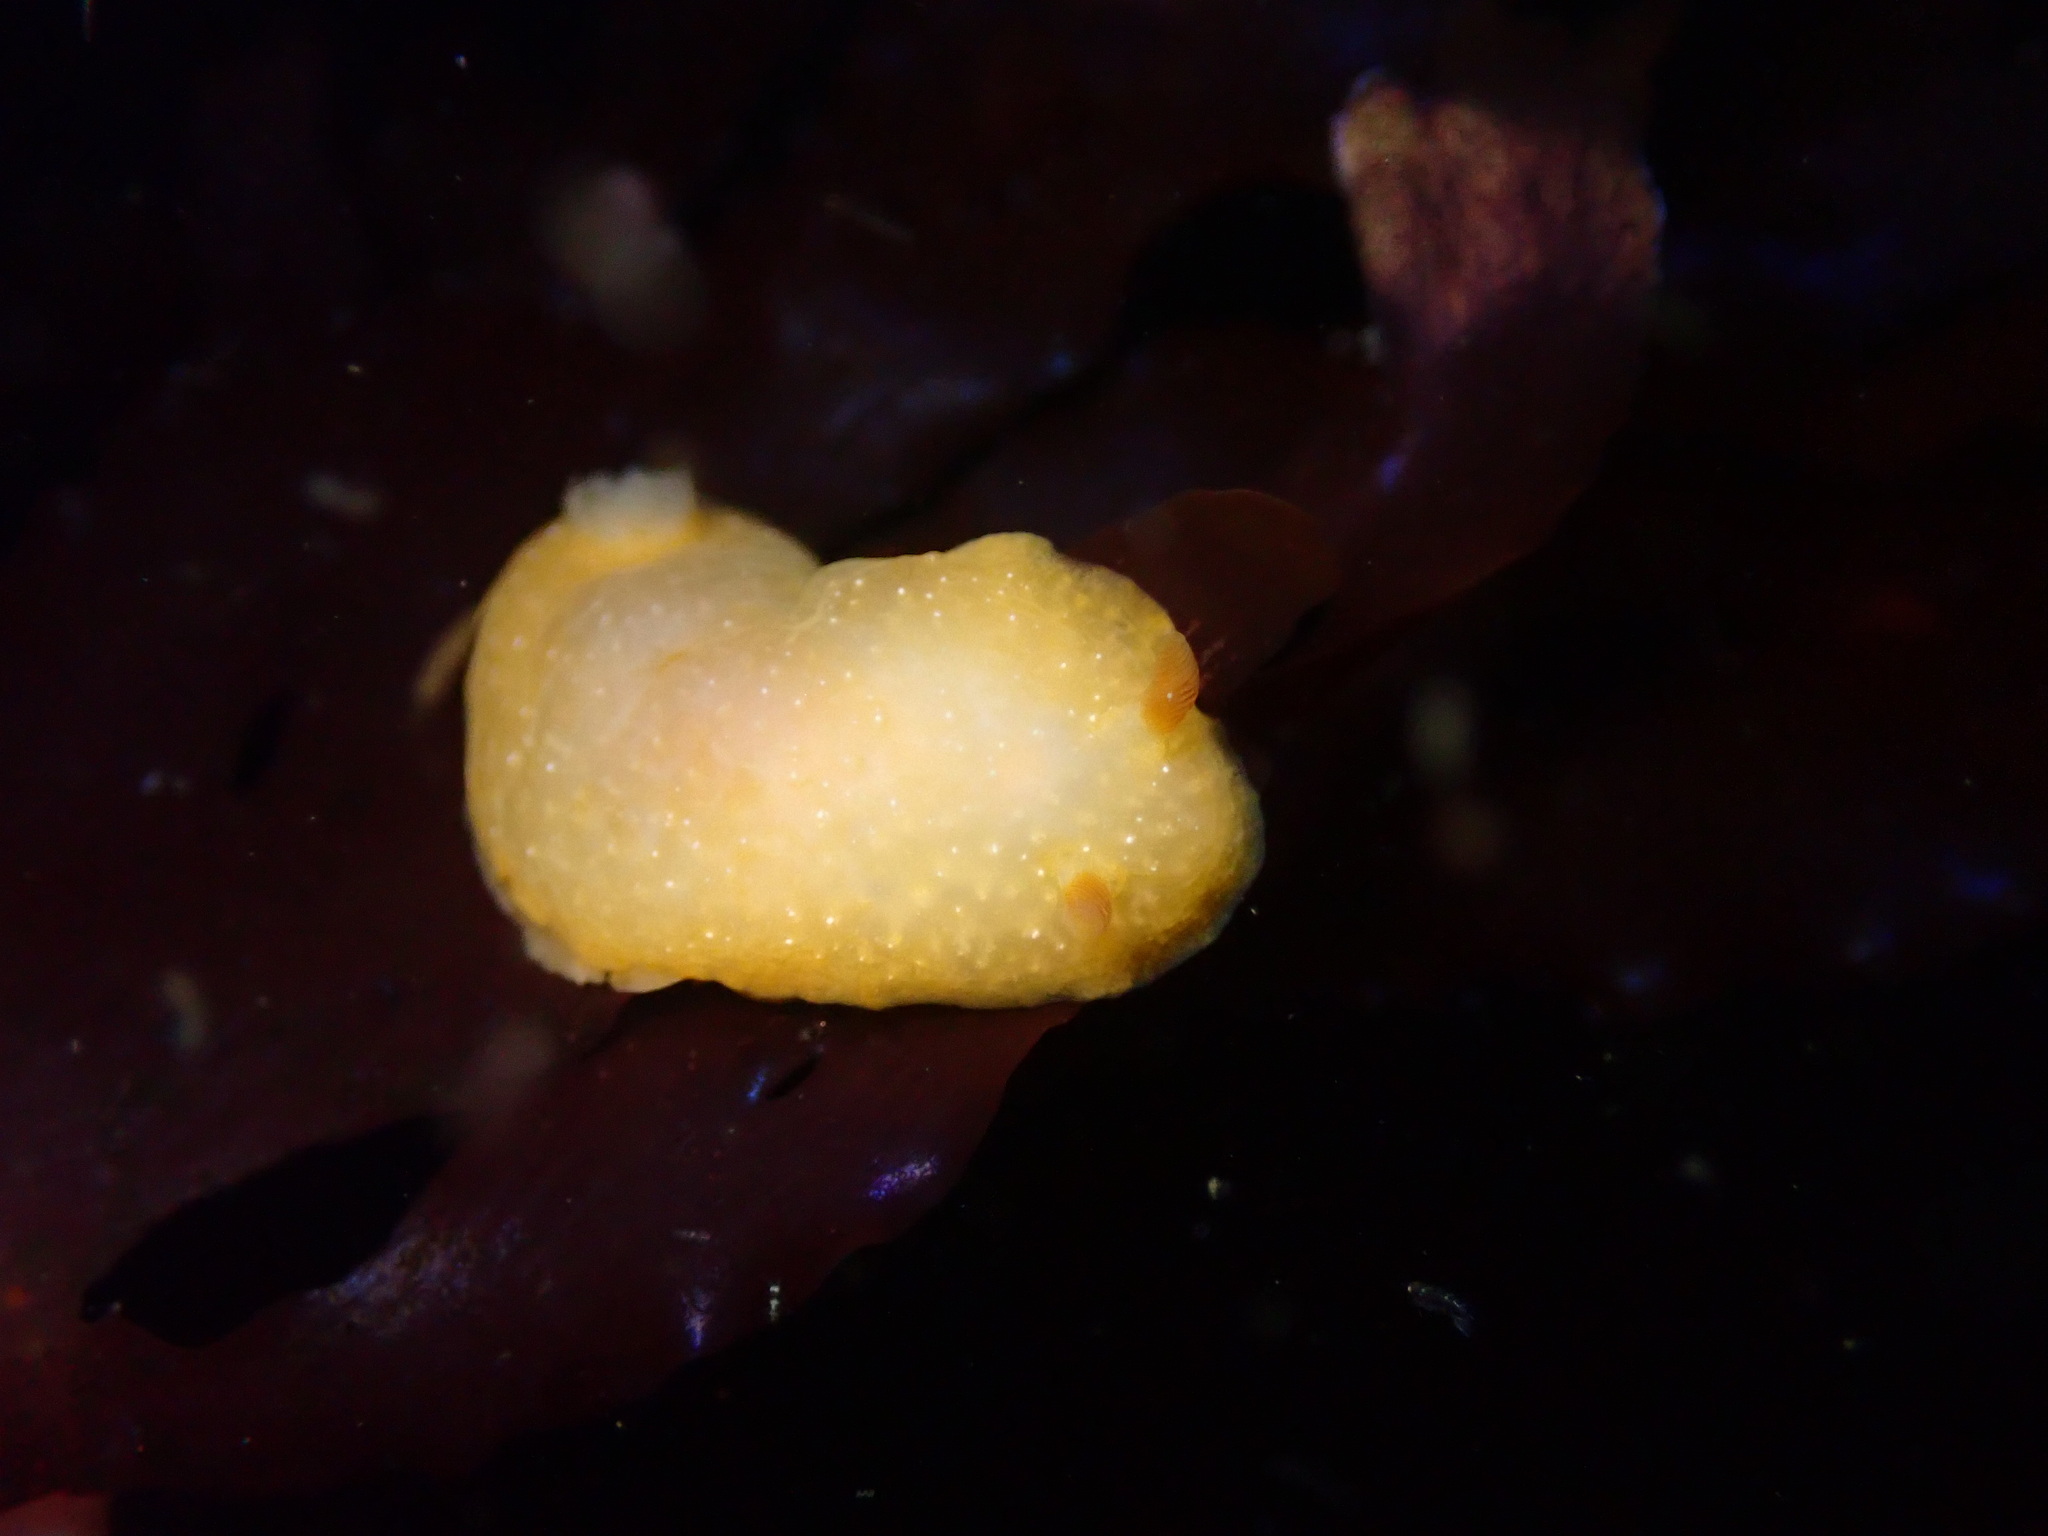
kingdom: Animalia
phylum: Mollusca
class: Gastropoda
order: Nudibranchia
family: Dendrodorididae
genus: Doriopsilla
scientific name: Doriopsilla fulva
